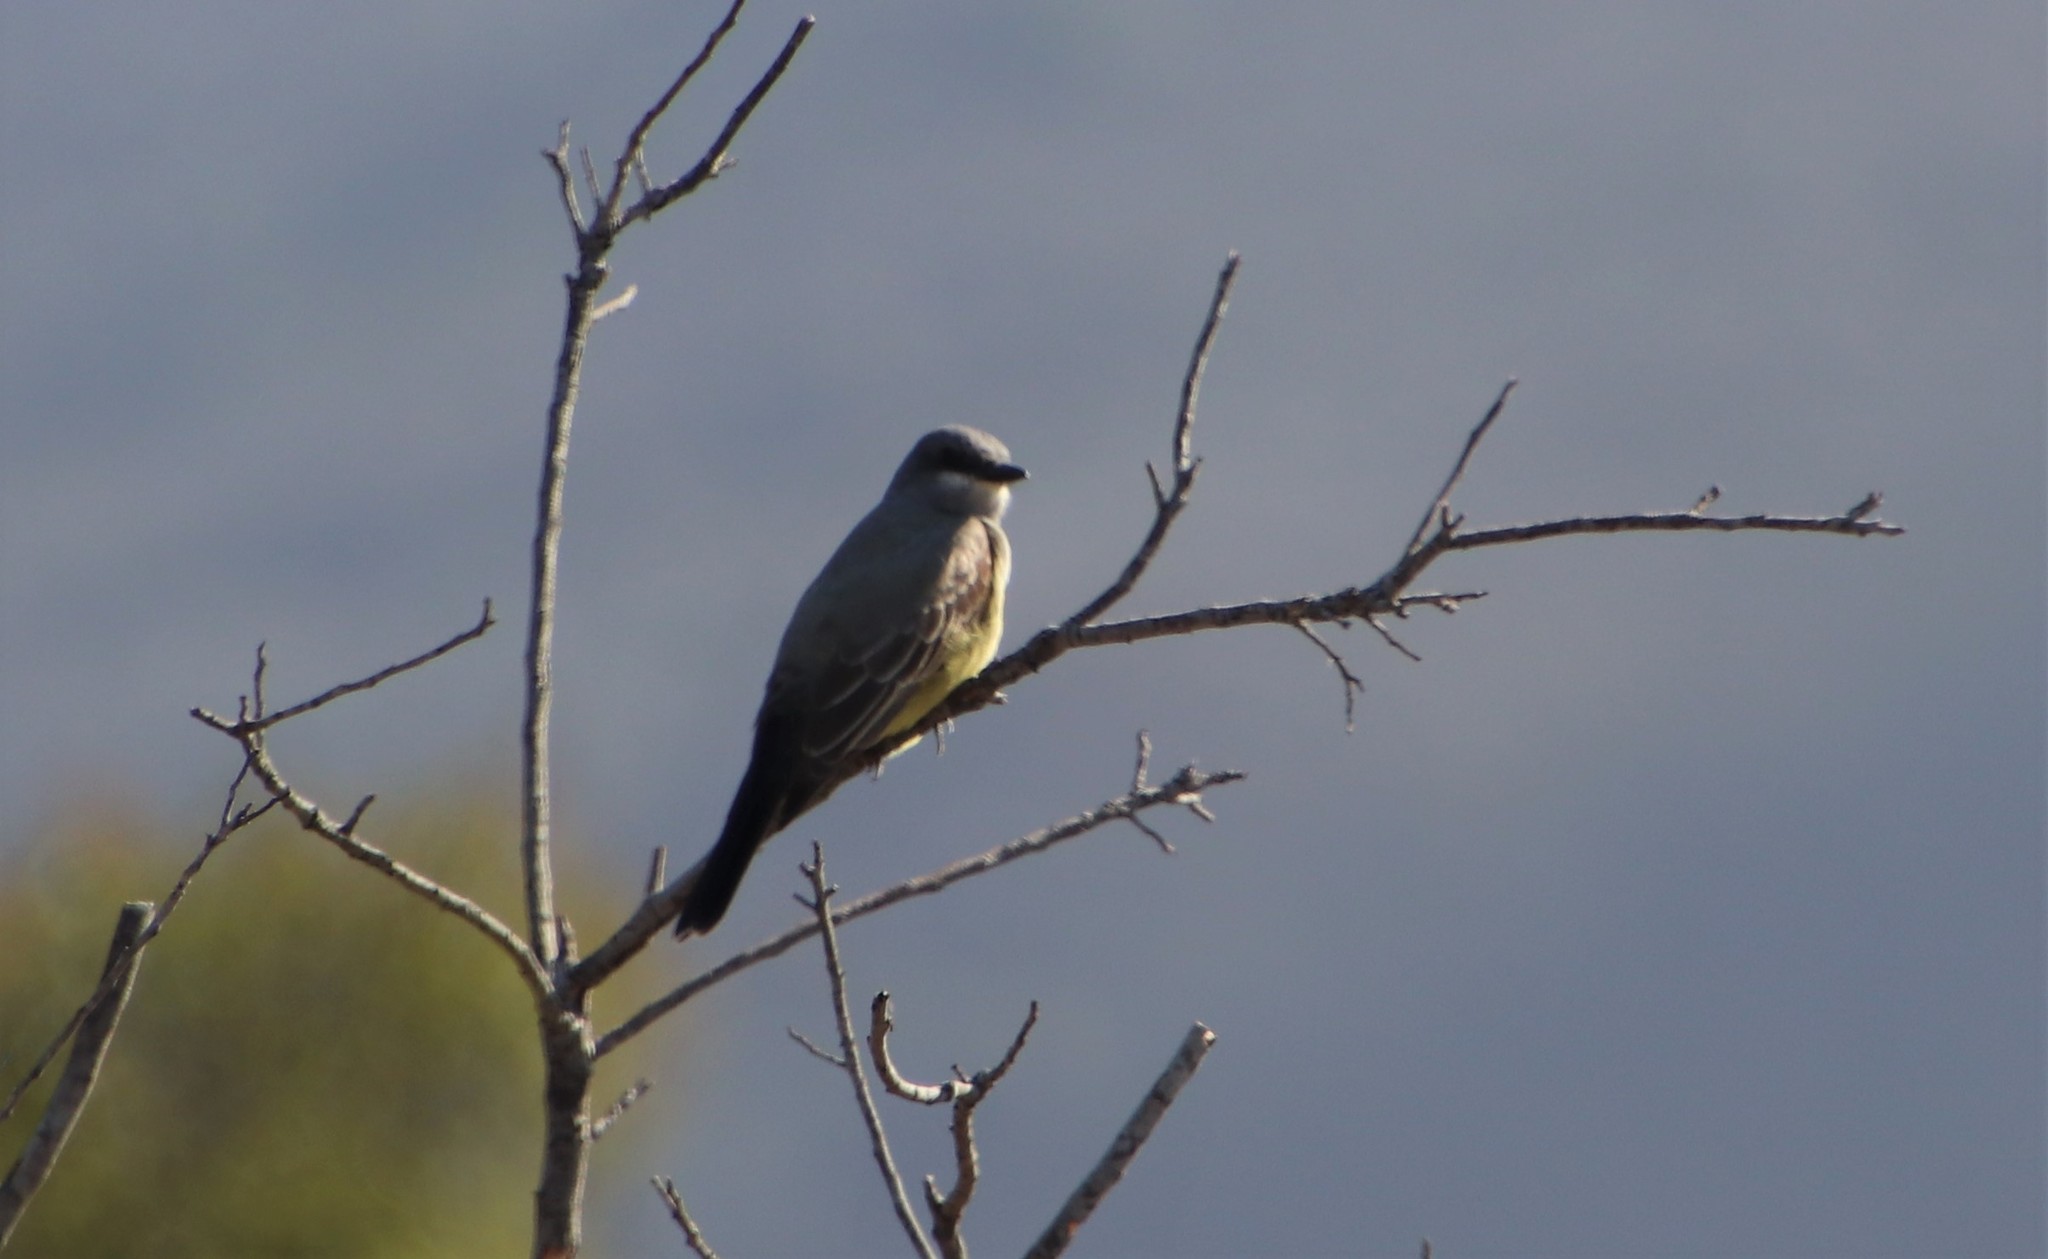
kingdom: Animalia
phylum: Chordata
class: Aves
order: Passeriformes
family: Tyrannidae
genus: Tyrannus
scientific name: Tyrannus vociferans
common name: Cassin's kingbird
